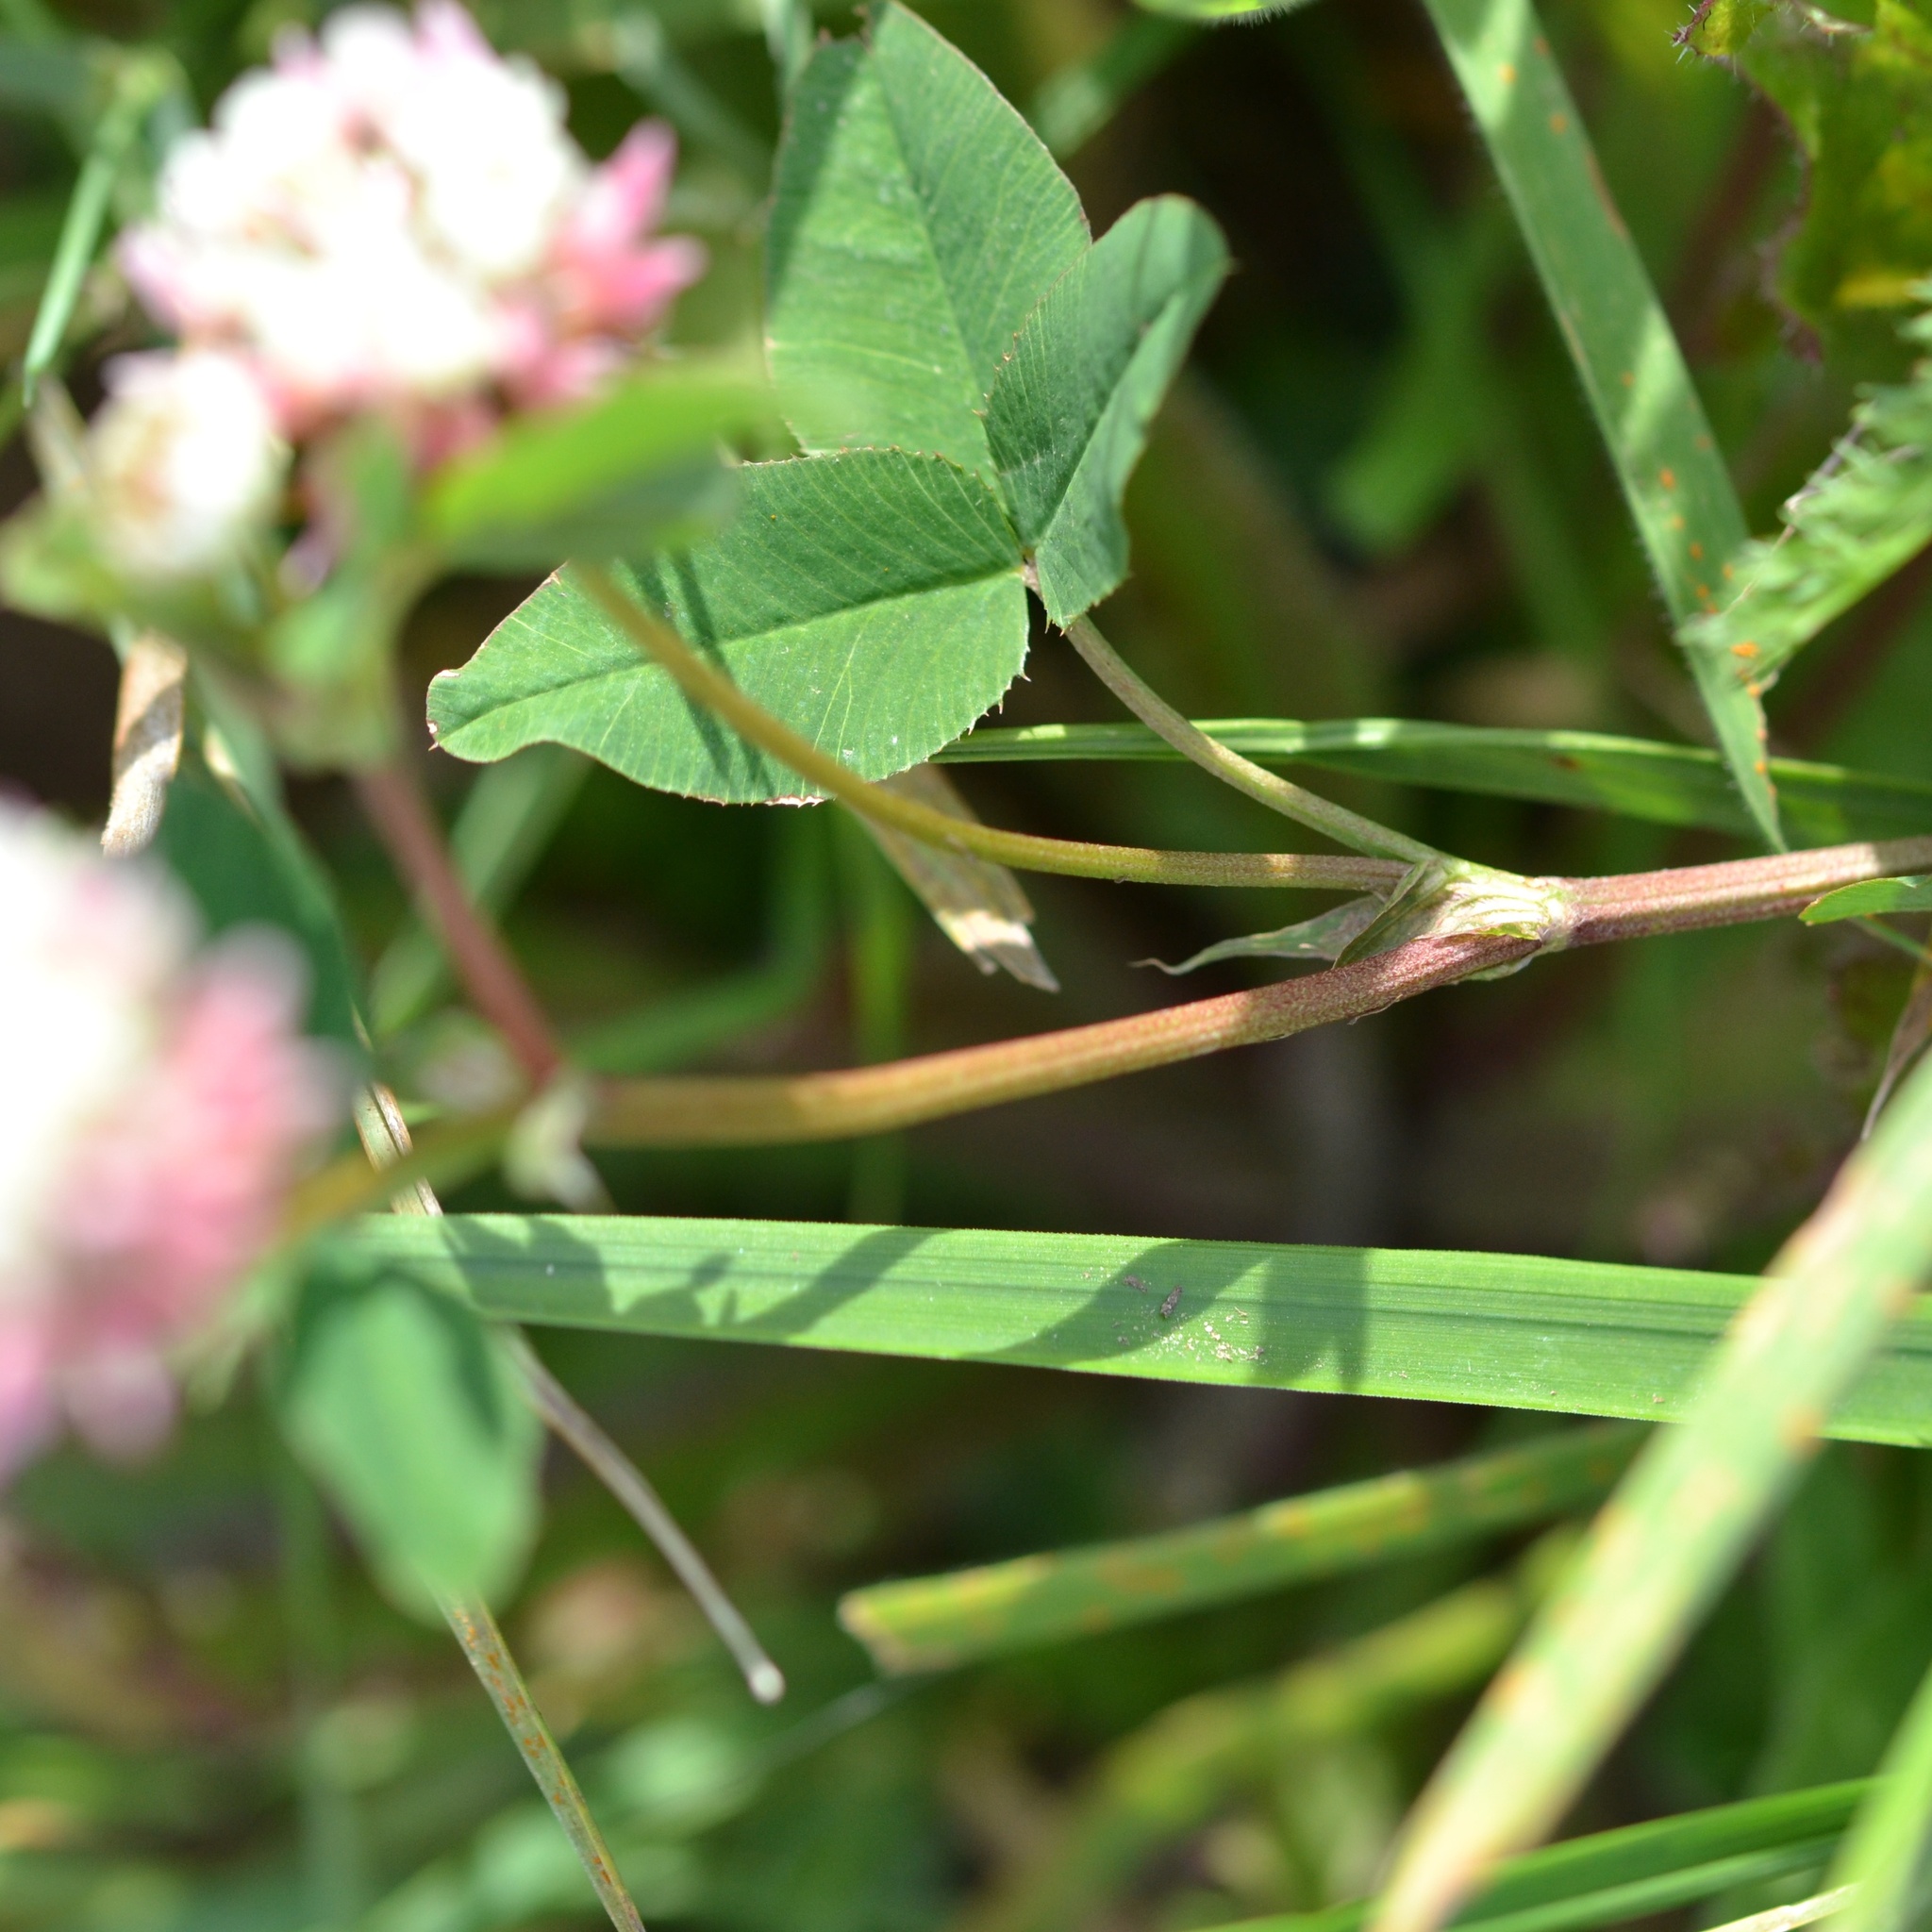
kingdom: Plantae
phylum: Tracheophyta
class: Magnoliopsida
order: Fabales
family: Fabaceae
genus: Trifolium
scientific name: Trifolium hybridum
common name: Alsike clover
